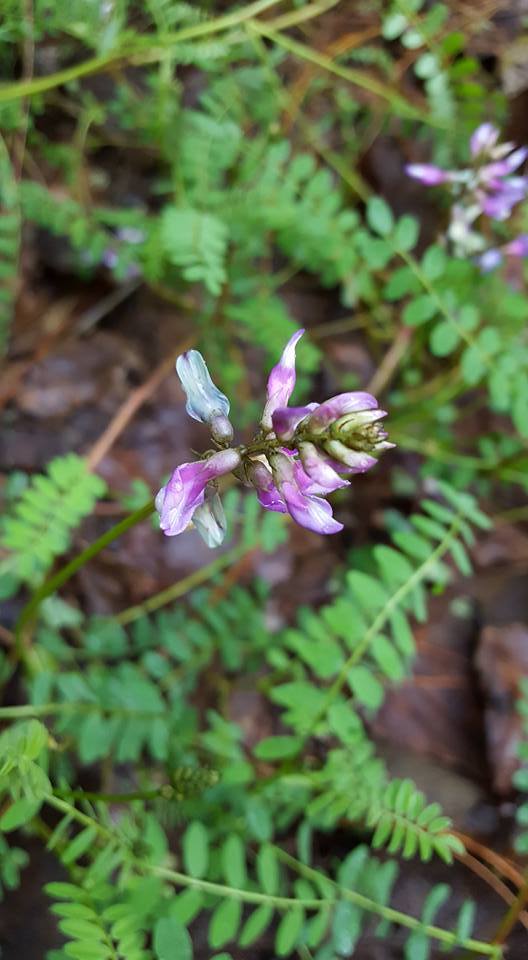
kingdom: Plantae
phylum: Tracheophyta
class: Magnoliopsida
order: Fabales
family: Fabaceae
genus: Astragalus
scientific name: Astragalus guatemalensis
